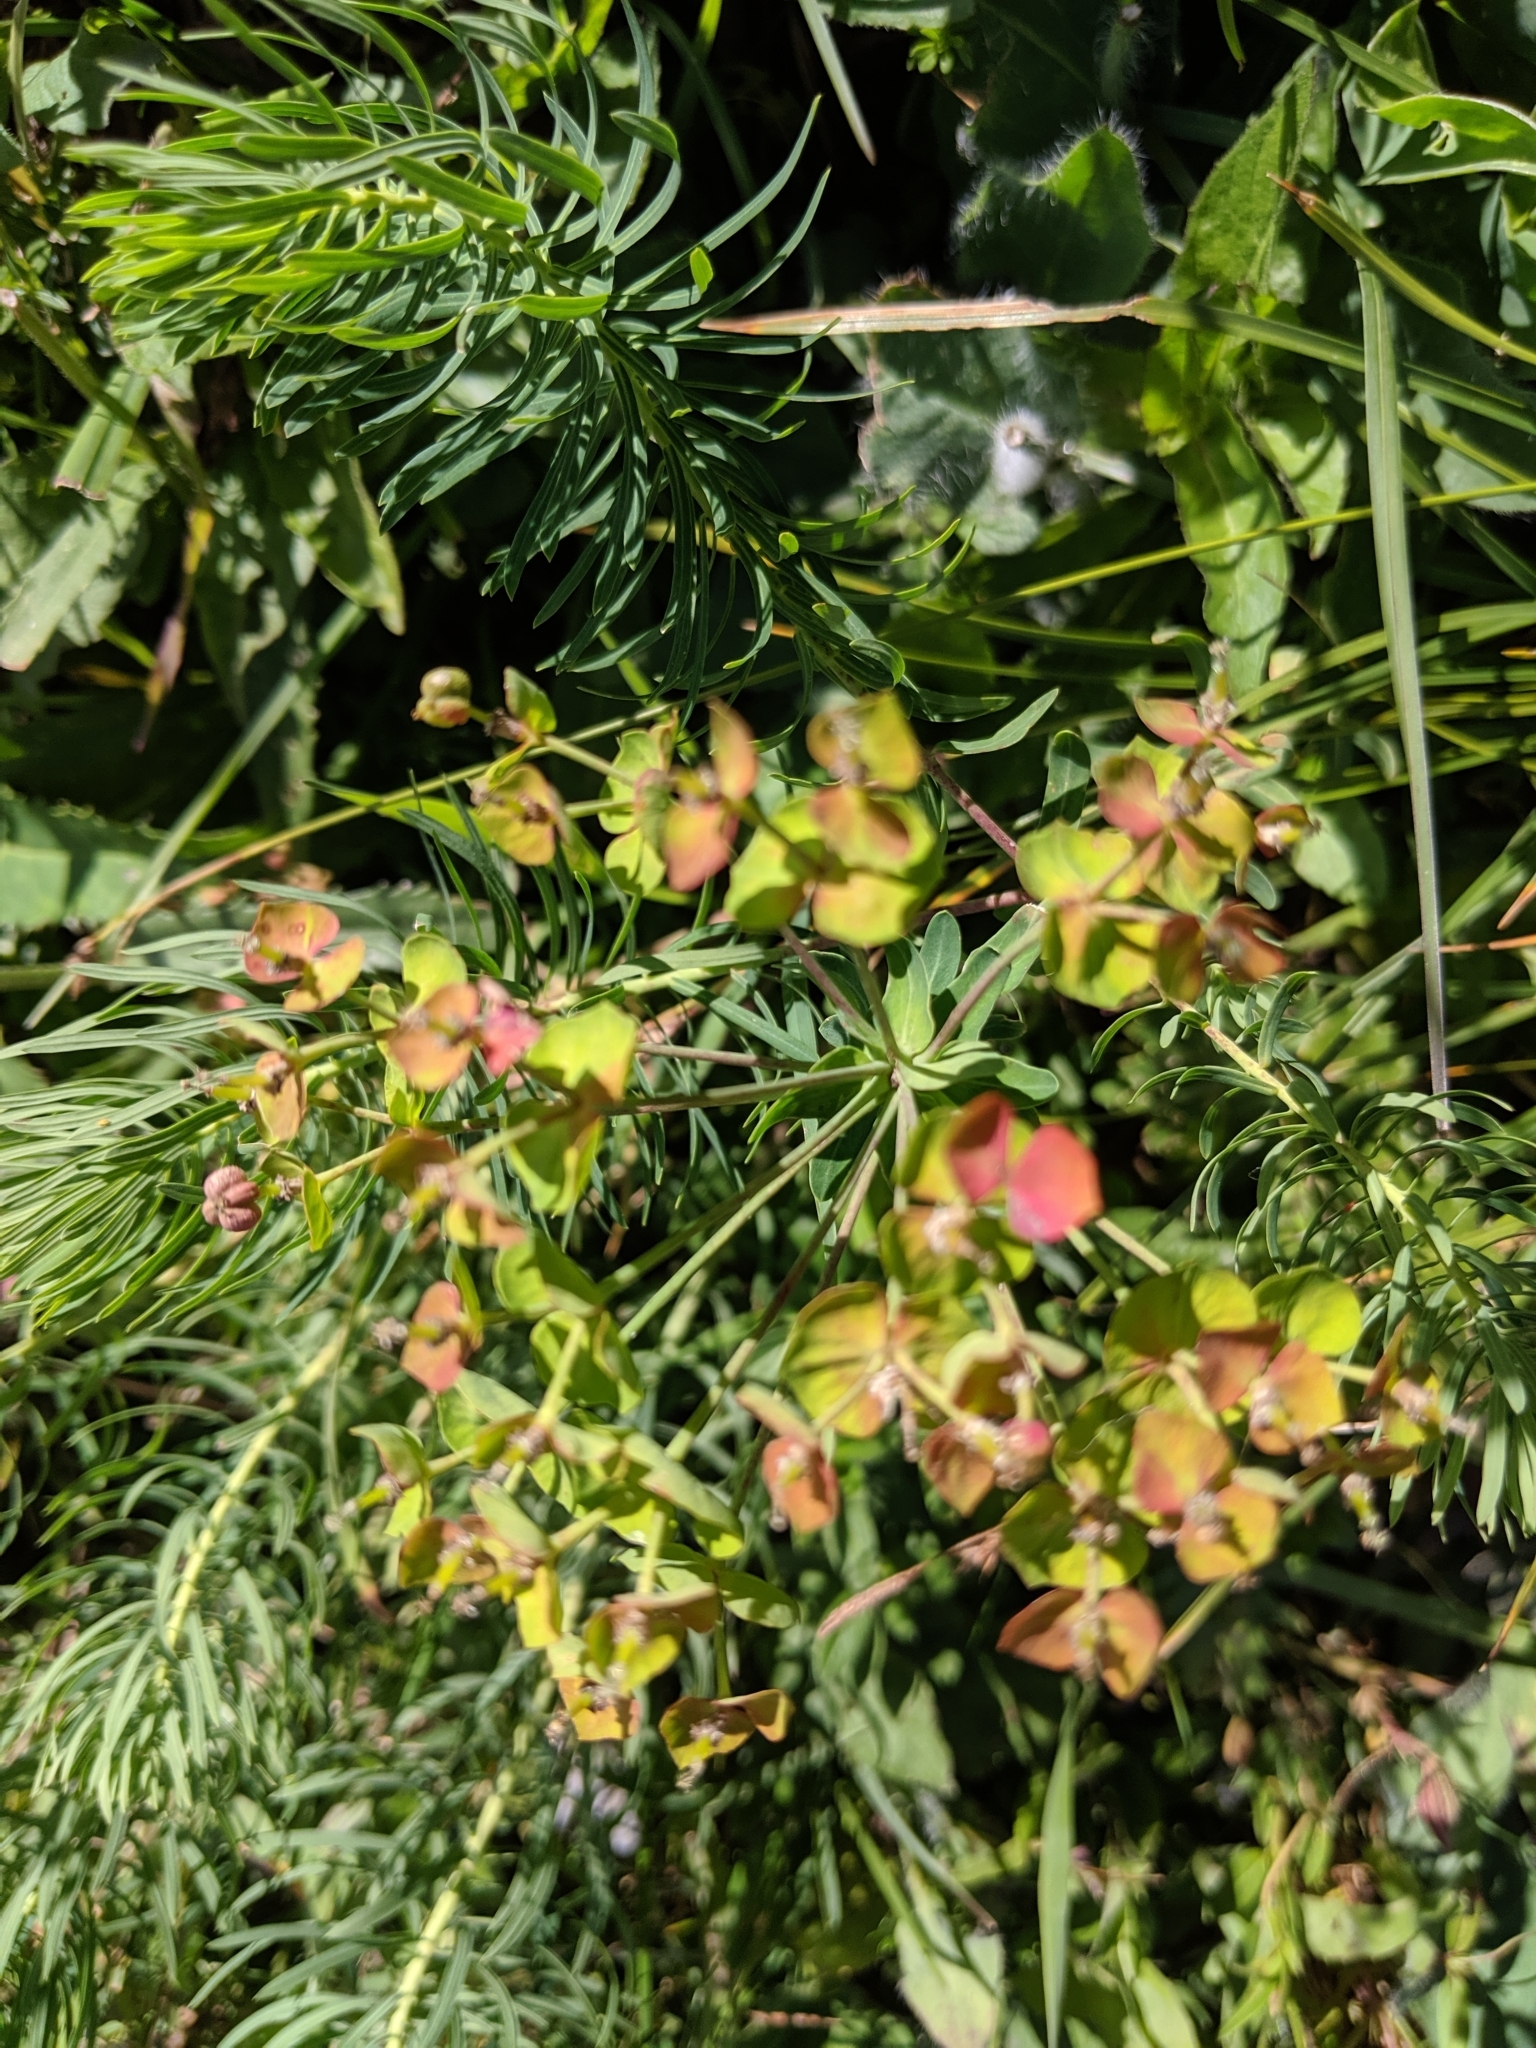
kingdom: Plantae
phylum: Tracheophyta
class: Magnoliopsida
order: Malpighiales
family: Euphorbiaceae
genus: Euphorbia
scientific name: Euphorbia cyparissias
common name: Cypress spurge
